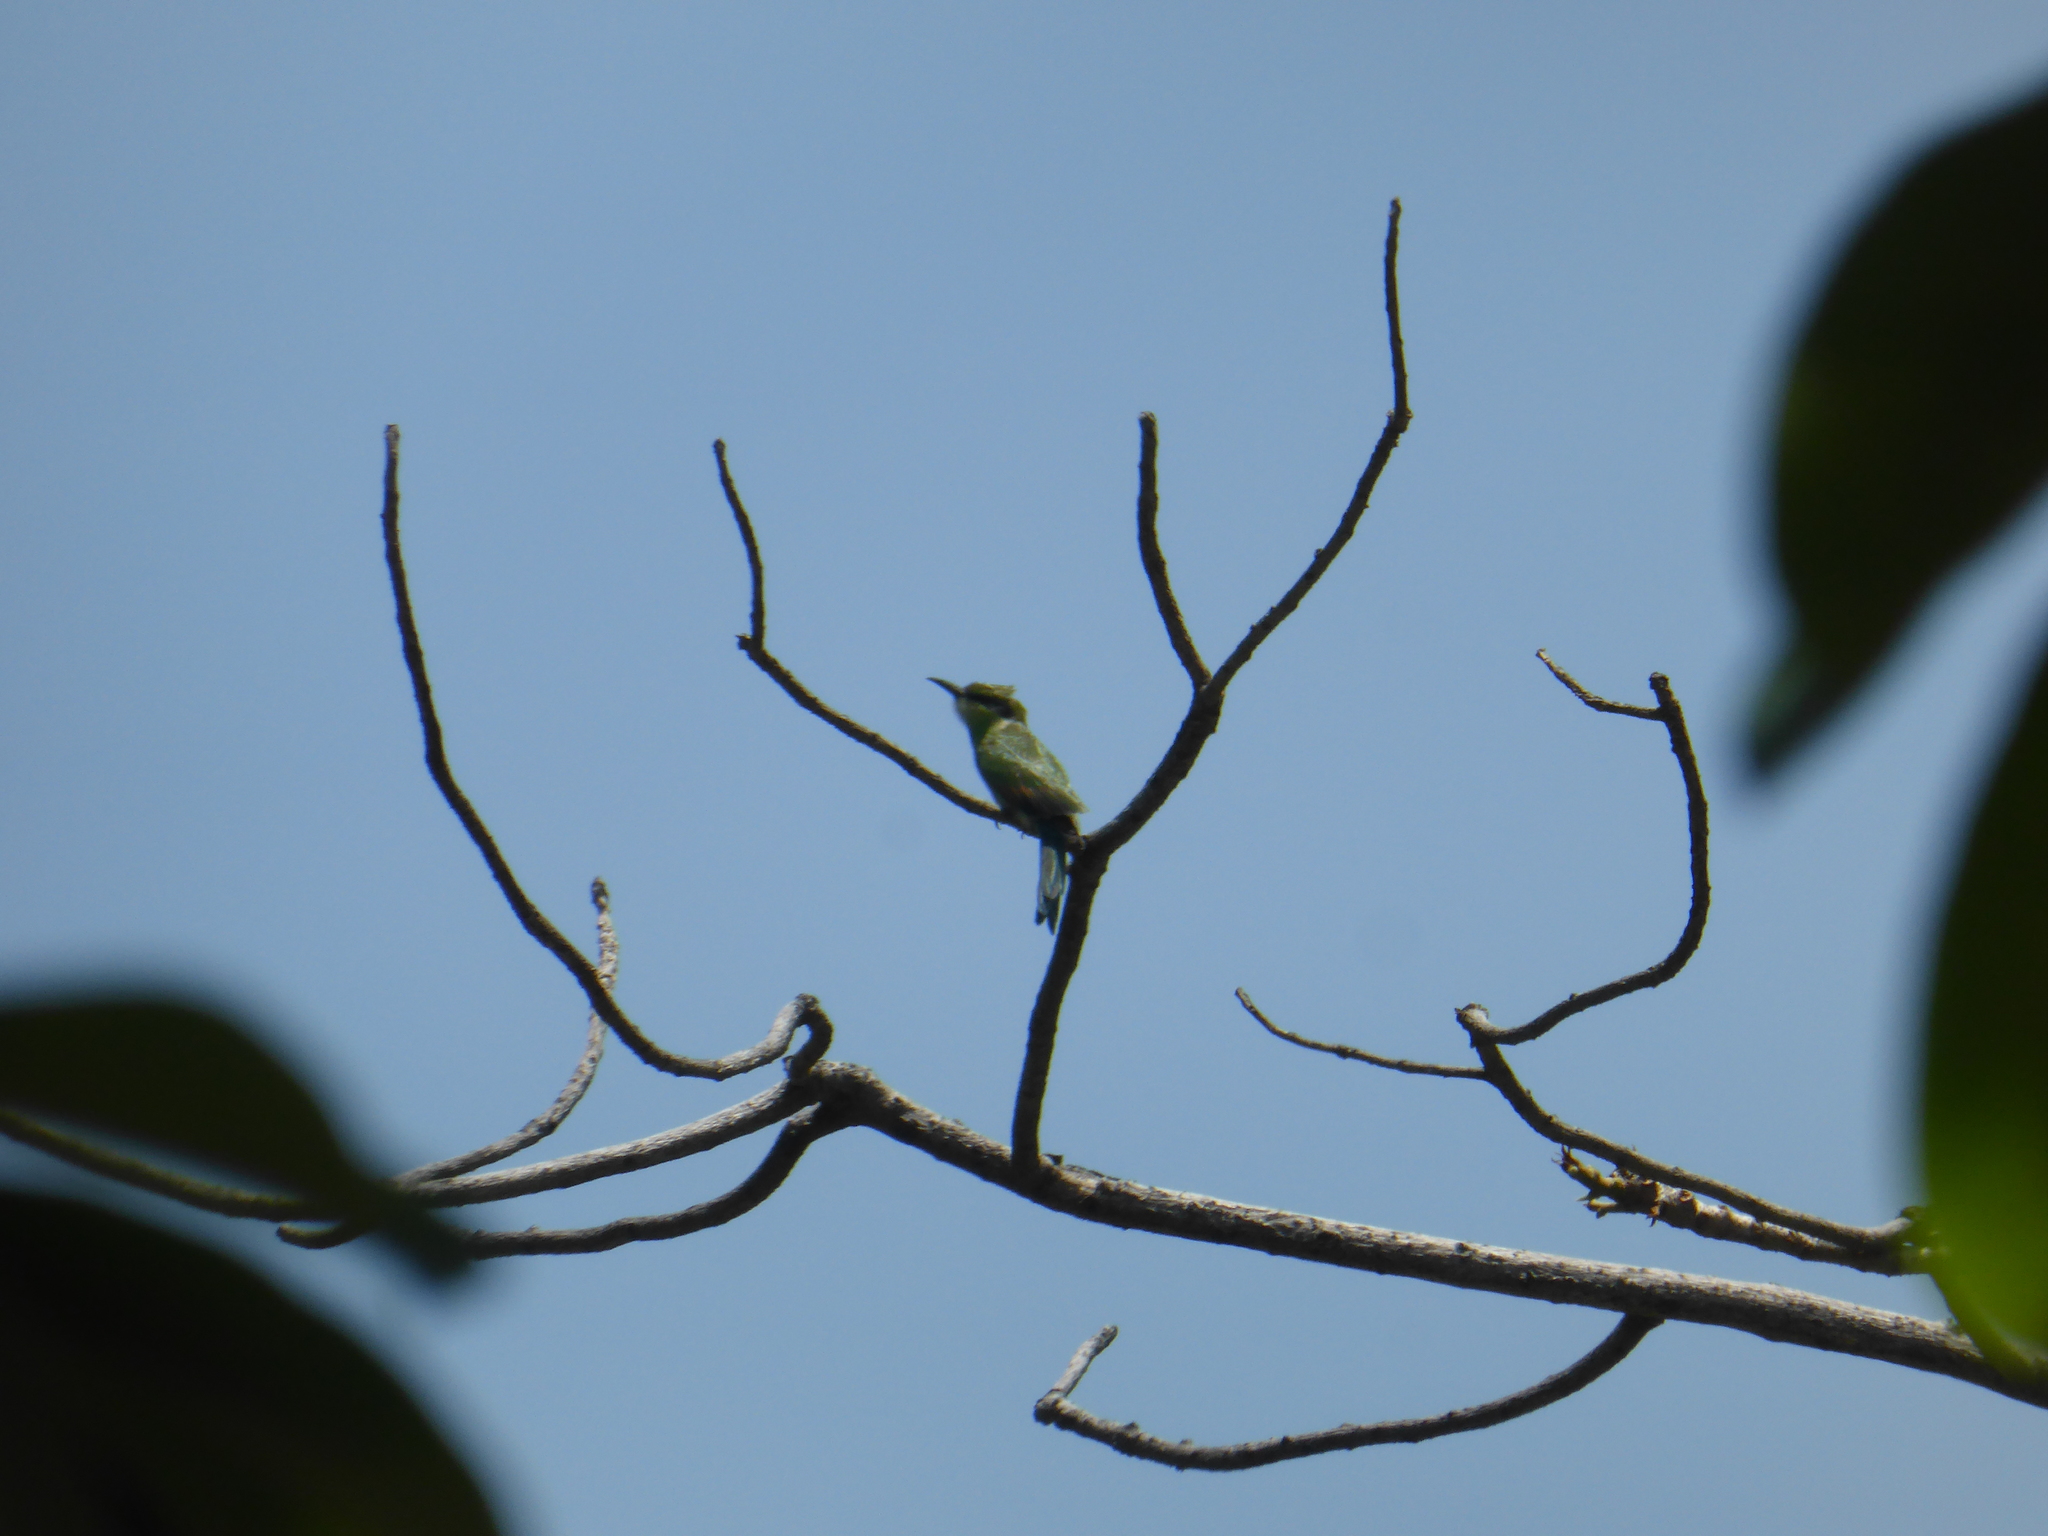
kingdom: Animalia
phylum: Chordata
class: Aves
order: Coraciiformes
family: Meropidae
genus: Merops
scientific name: Merops hirundineus
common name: Swallow-tailed bee-eater
